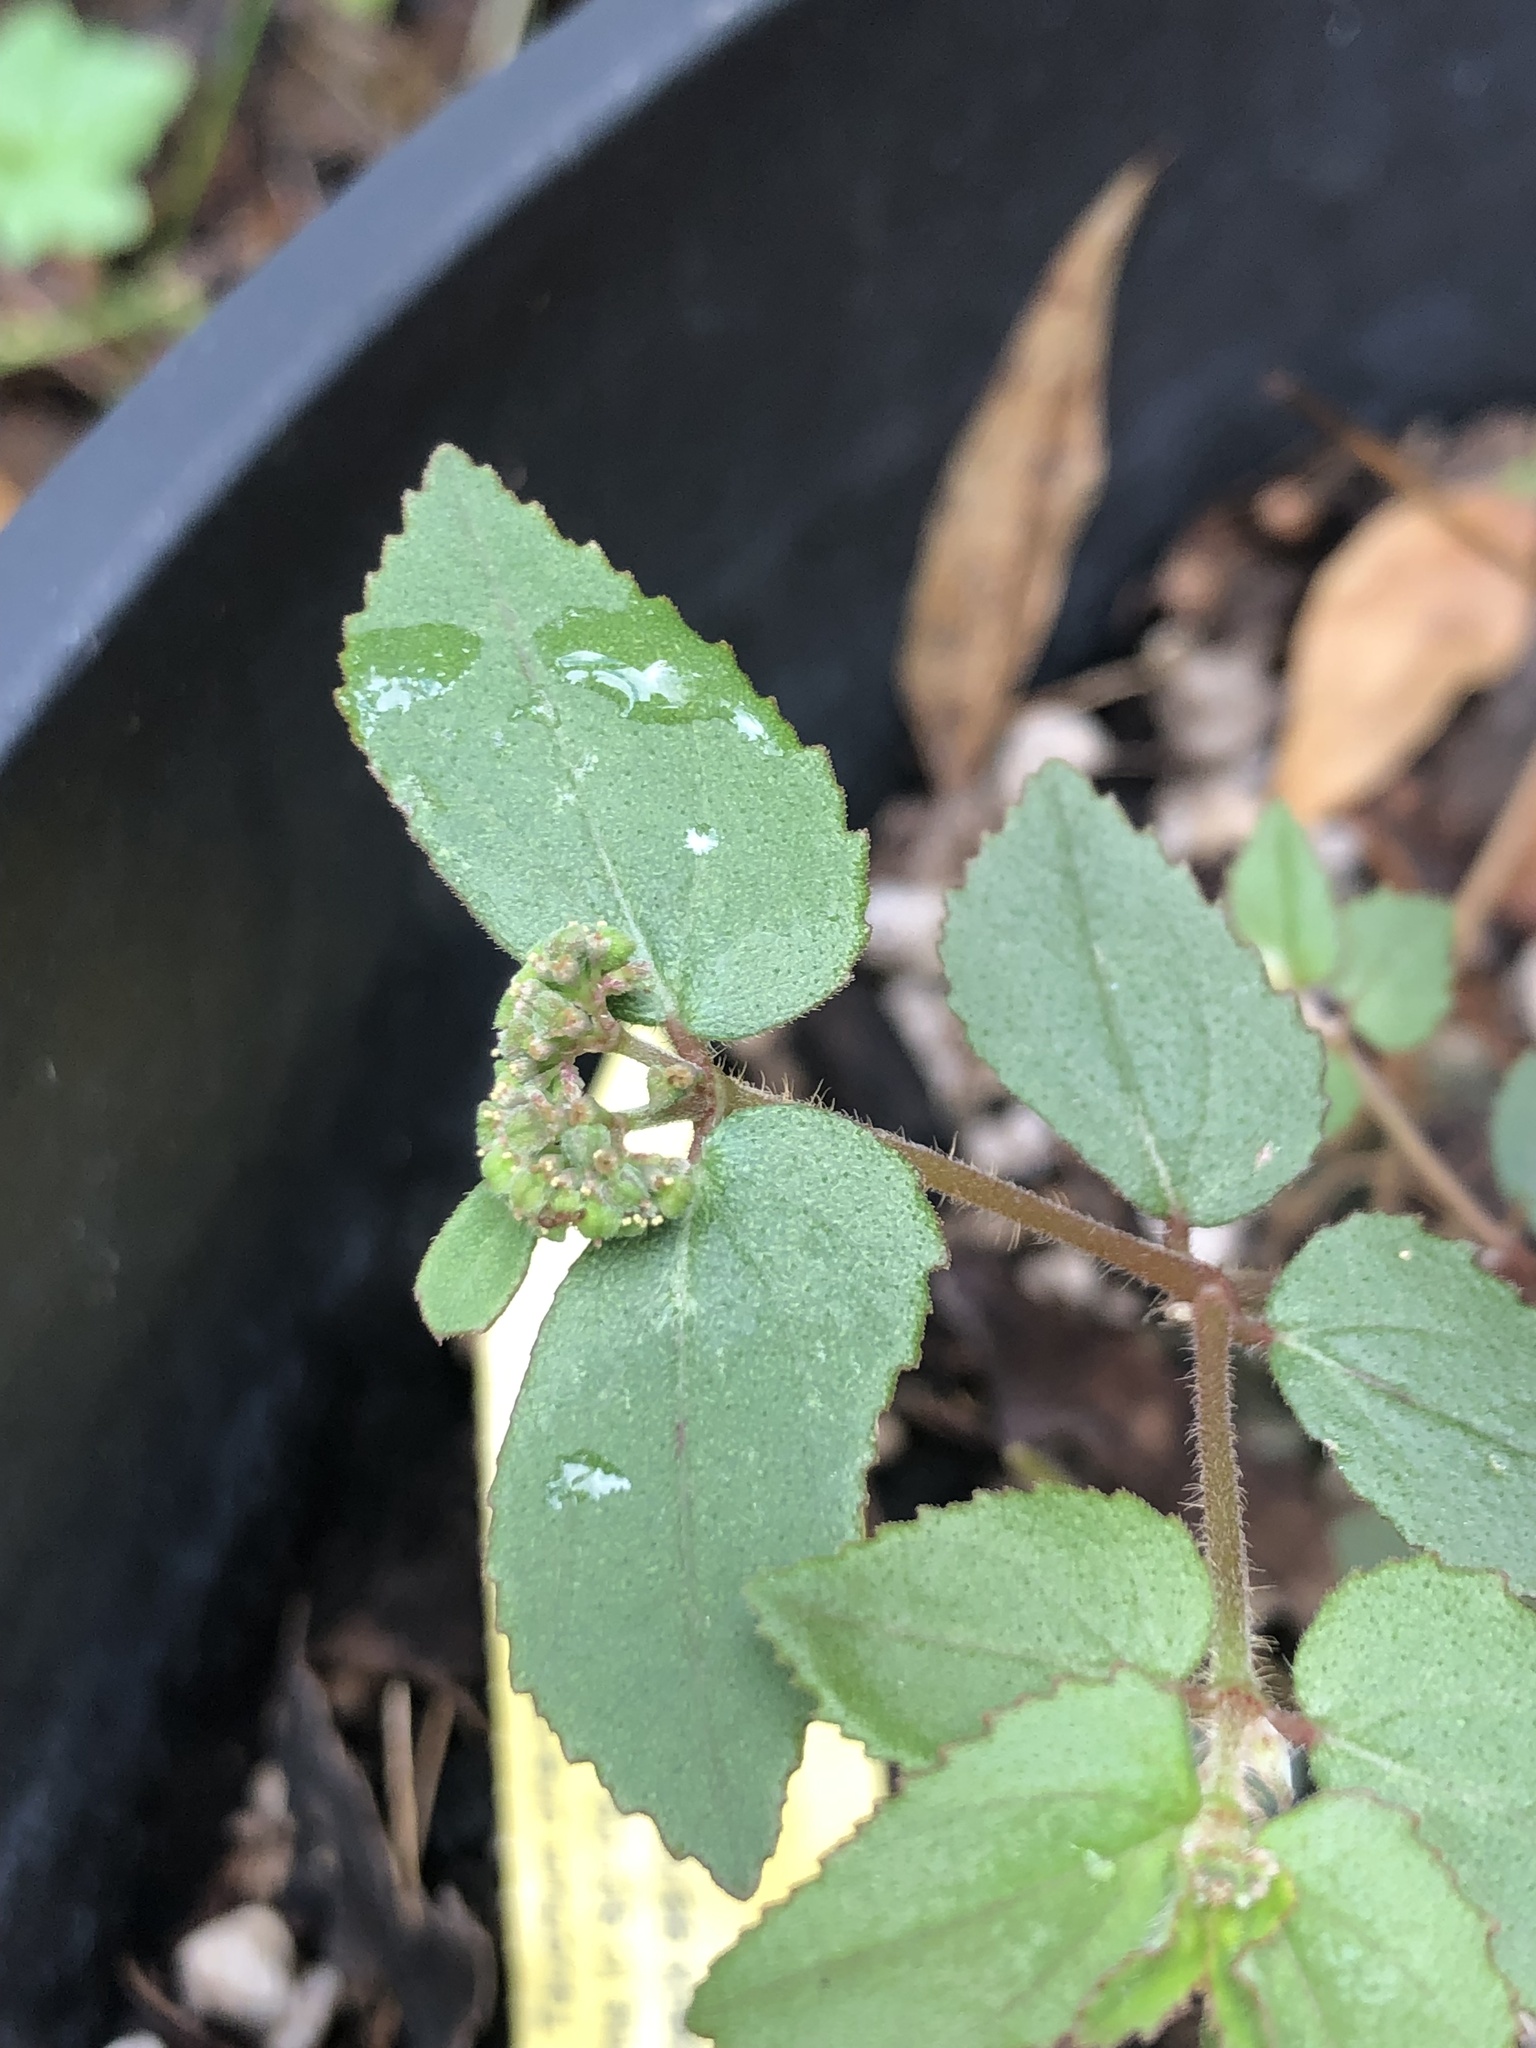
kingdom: Plantae
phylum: Tracheophyta
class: Magnoliopsida
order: Malpighiales
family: Euphorbiaceae
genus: Euphorbia
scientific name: Euphorbia ophthalmica
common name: Florida hammock sandmat
